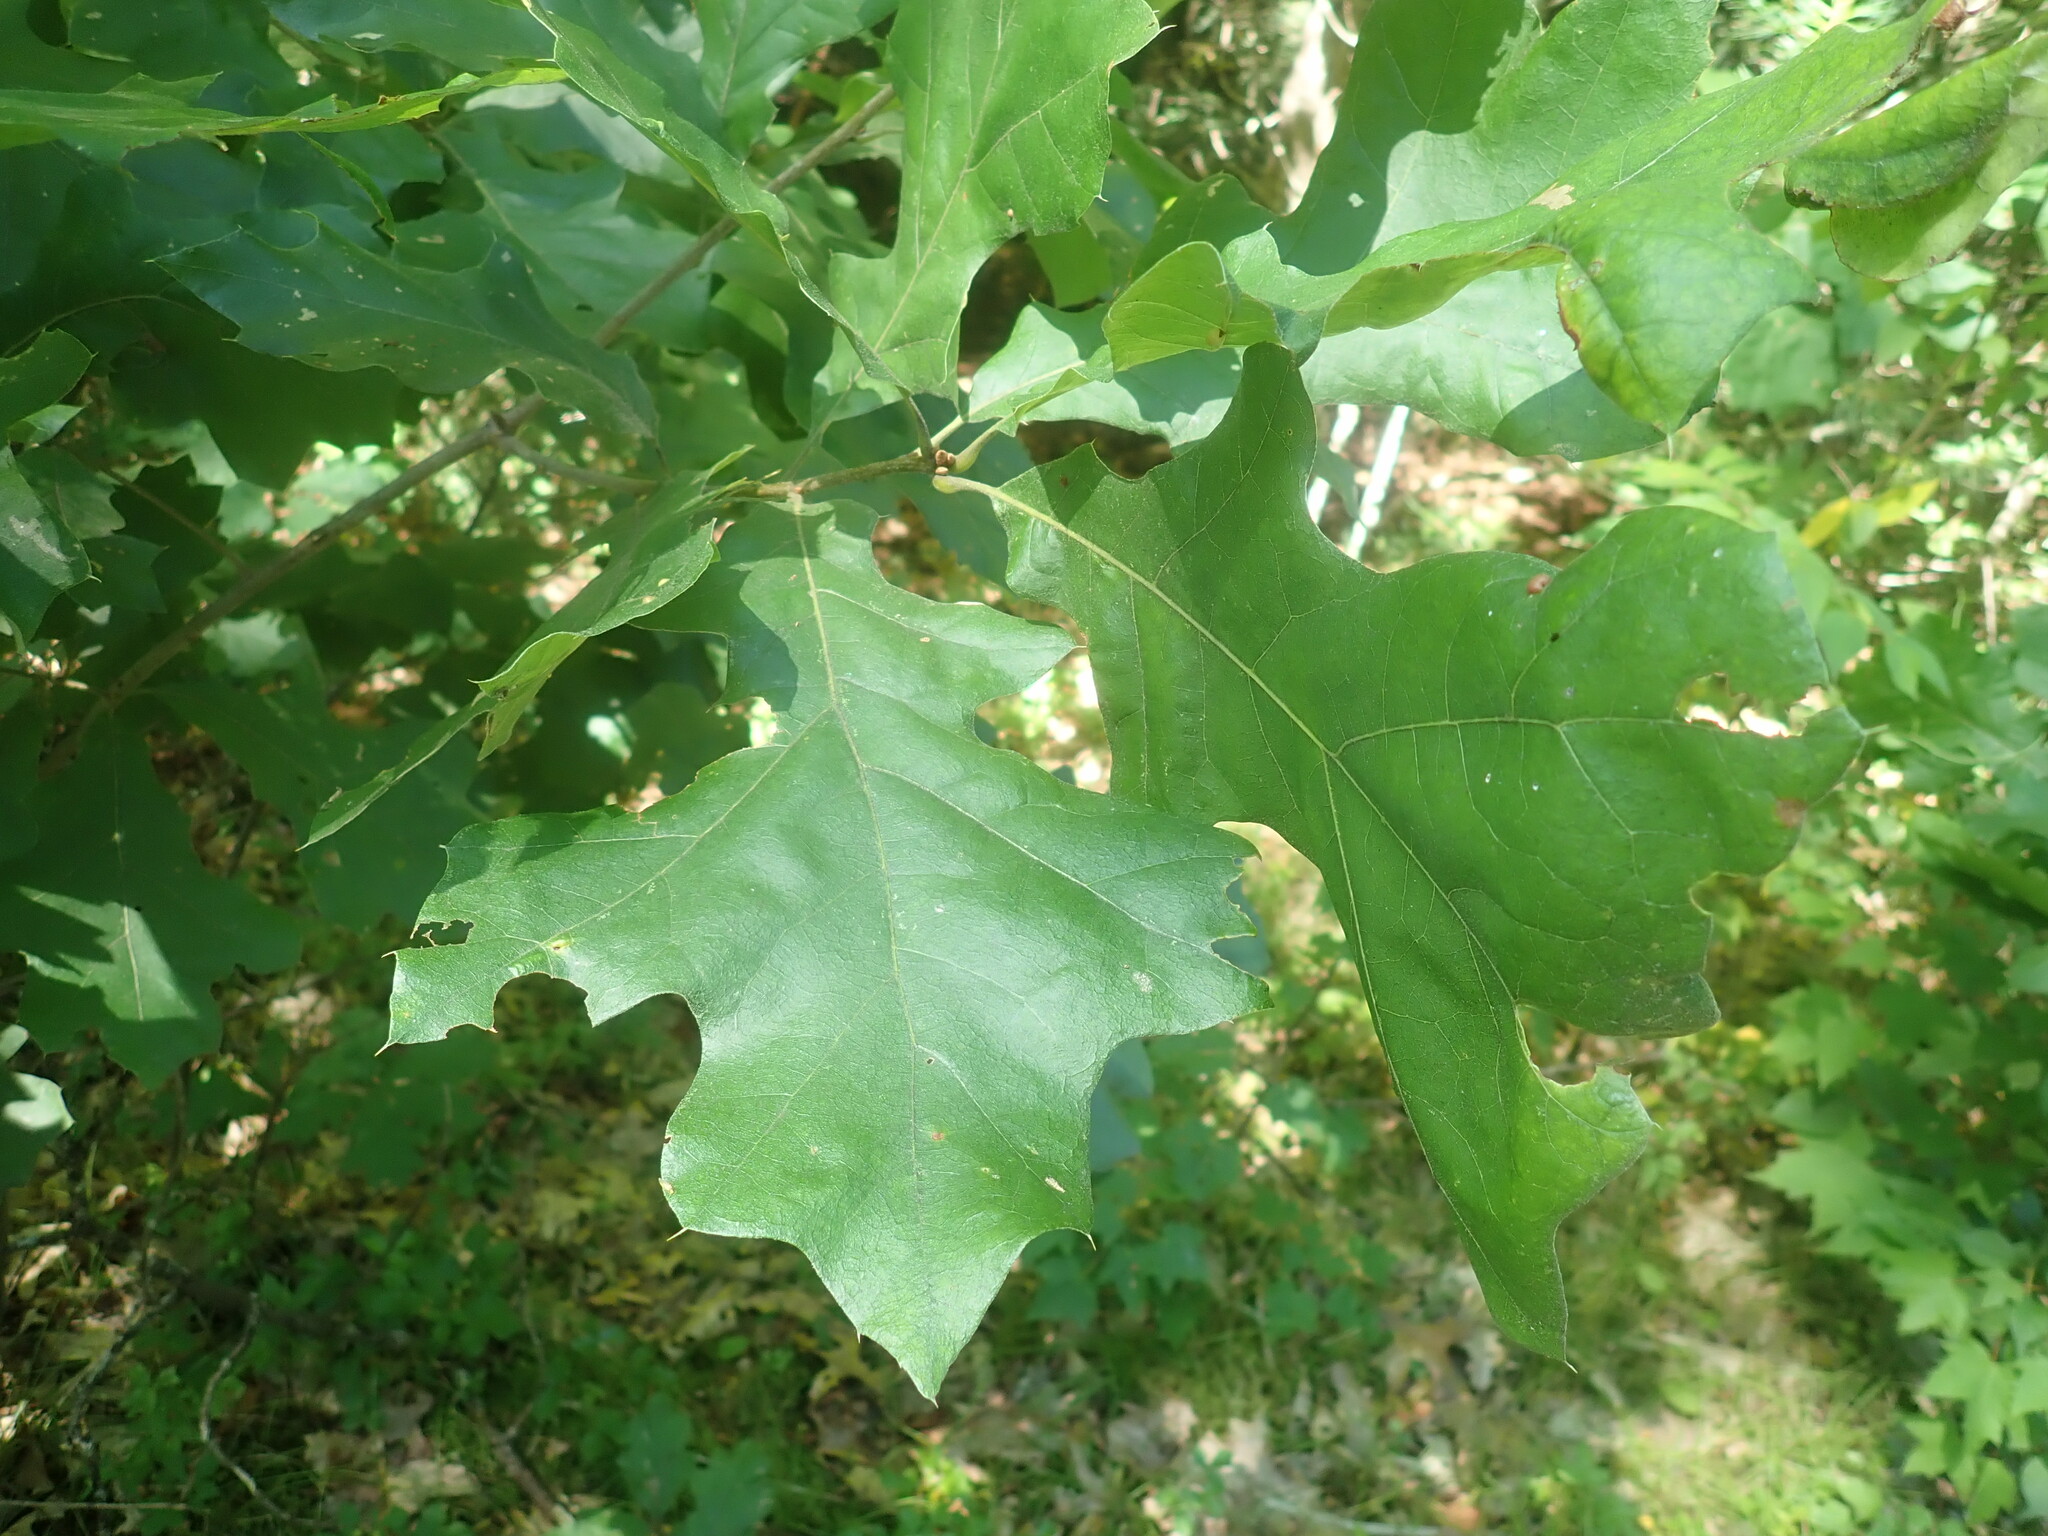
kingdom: Plantae
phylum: Tracheophyta
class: Magnoliopsida
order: Fagales
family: Fagaceae
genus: Quercus
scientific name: Quercus velutina
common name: Black oak
